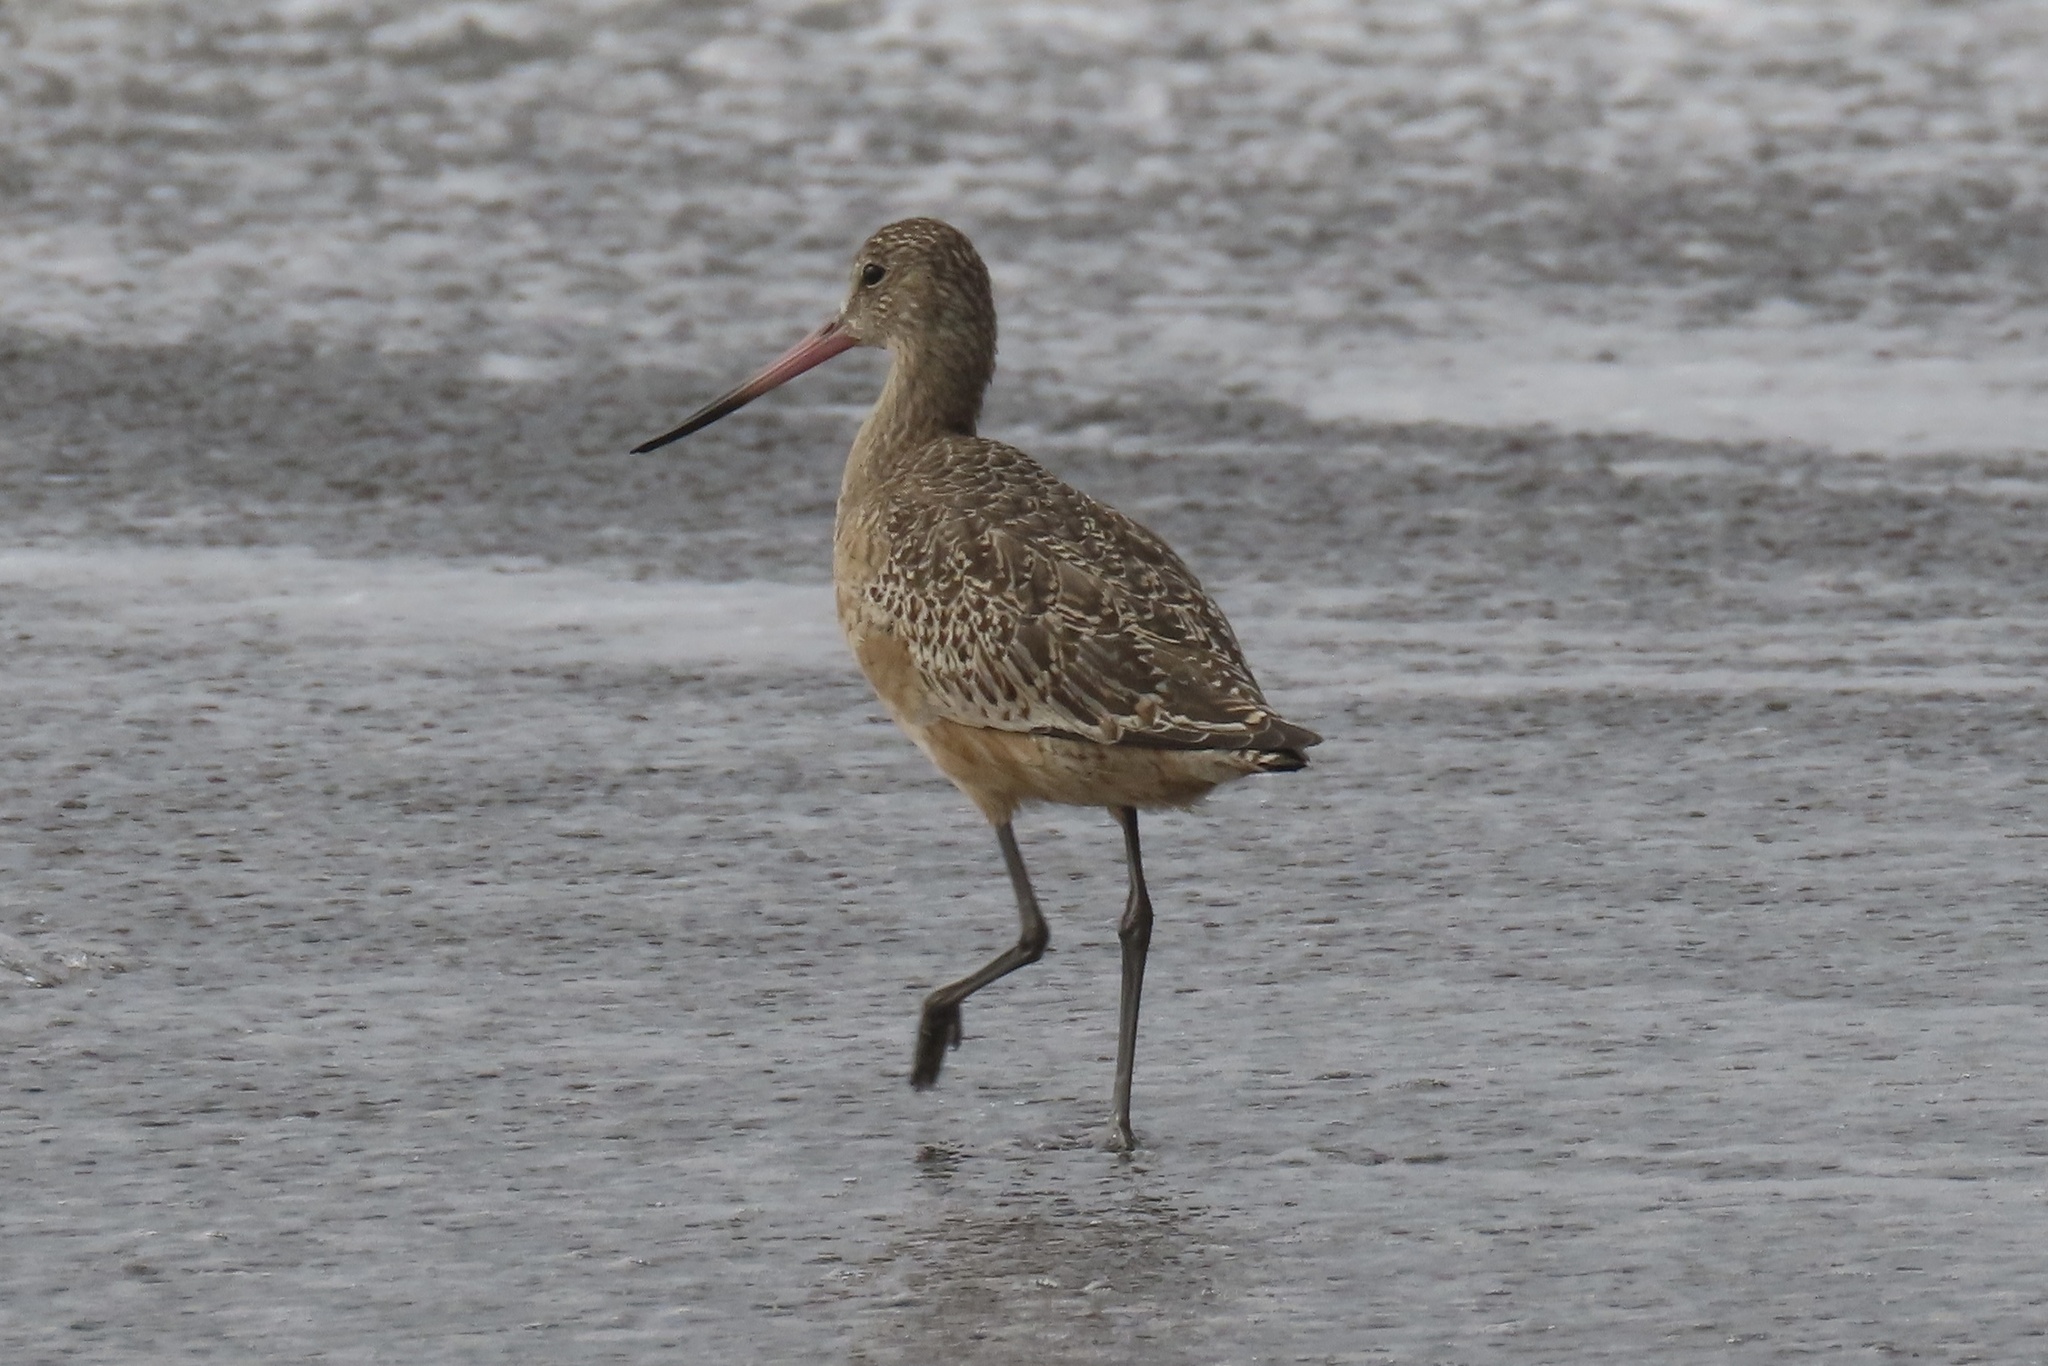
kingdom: Animalia
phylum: Chordata
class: Aves
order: Charadriiformes
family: Scolopacidae
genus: Limosa
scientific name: Limosa fedoa
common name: Marbled godwit
